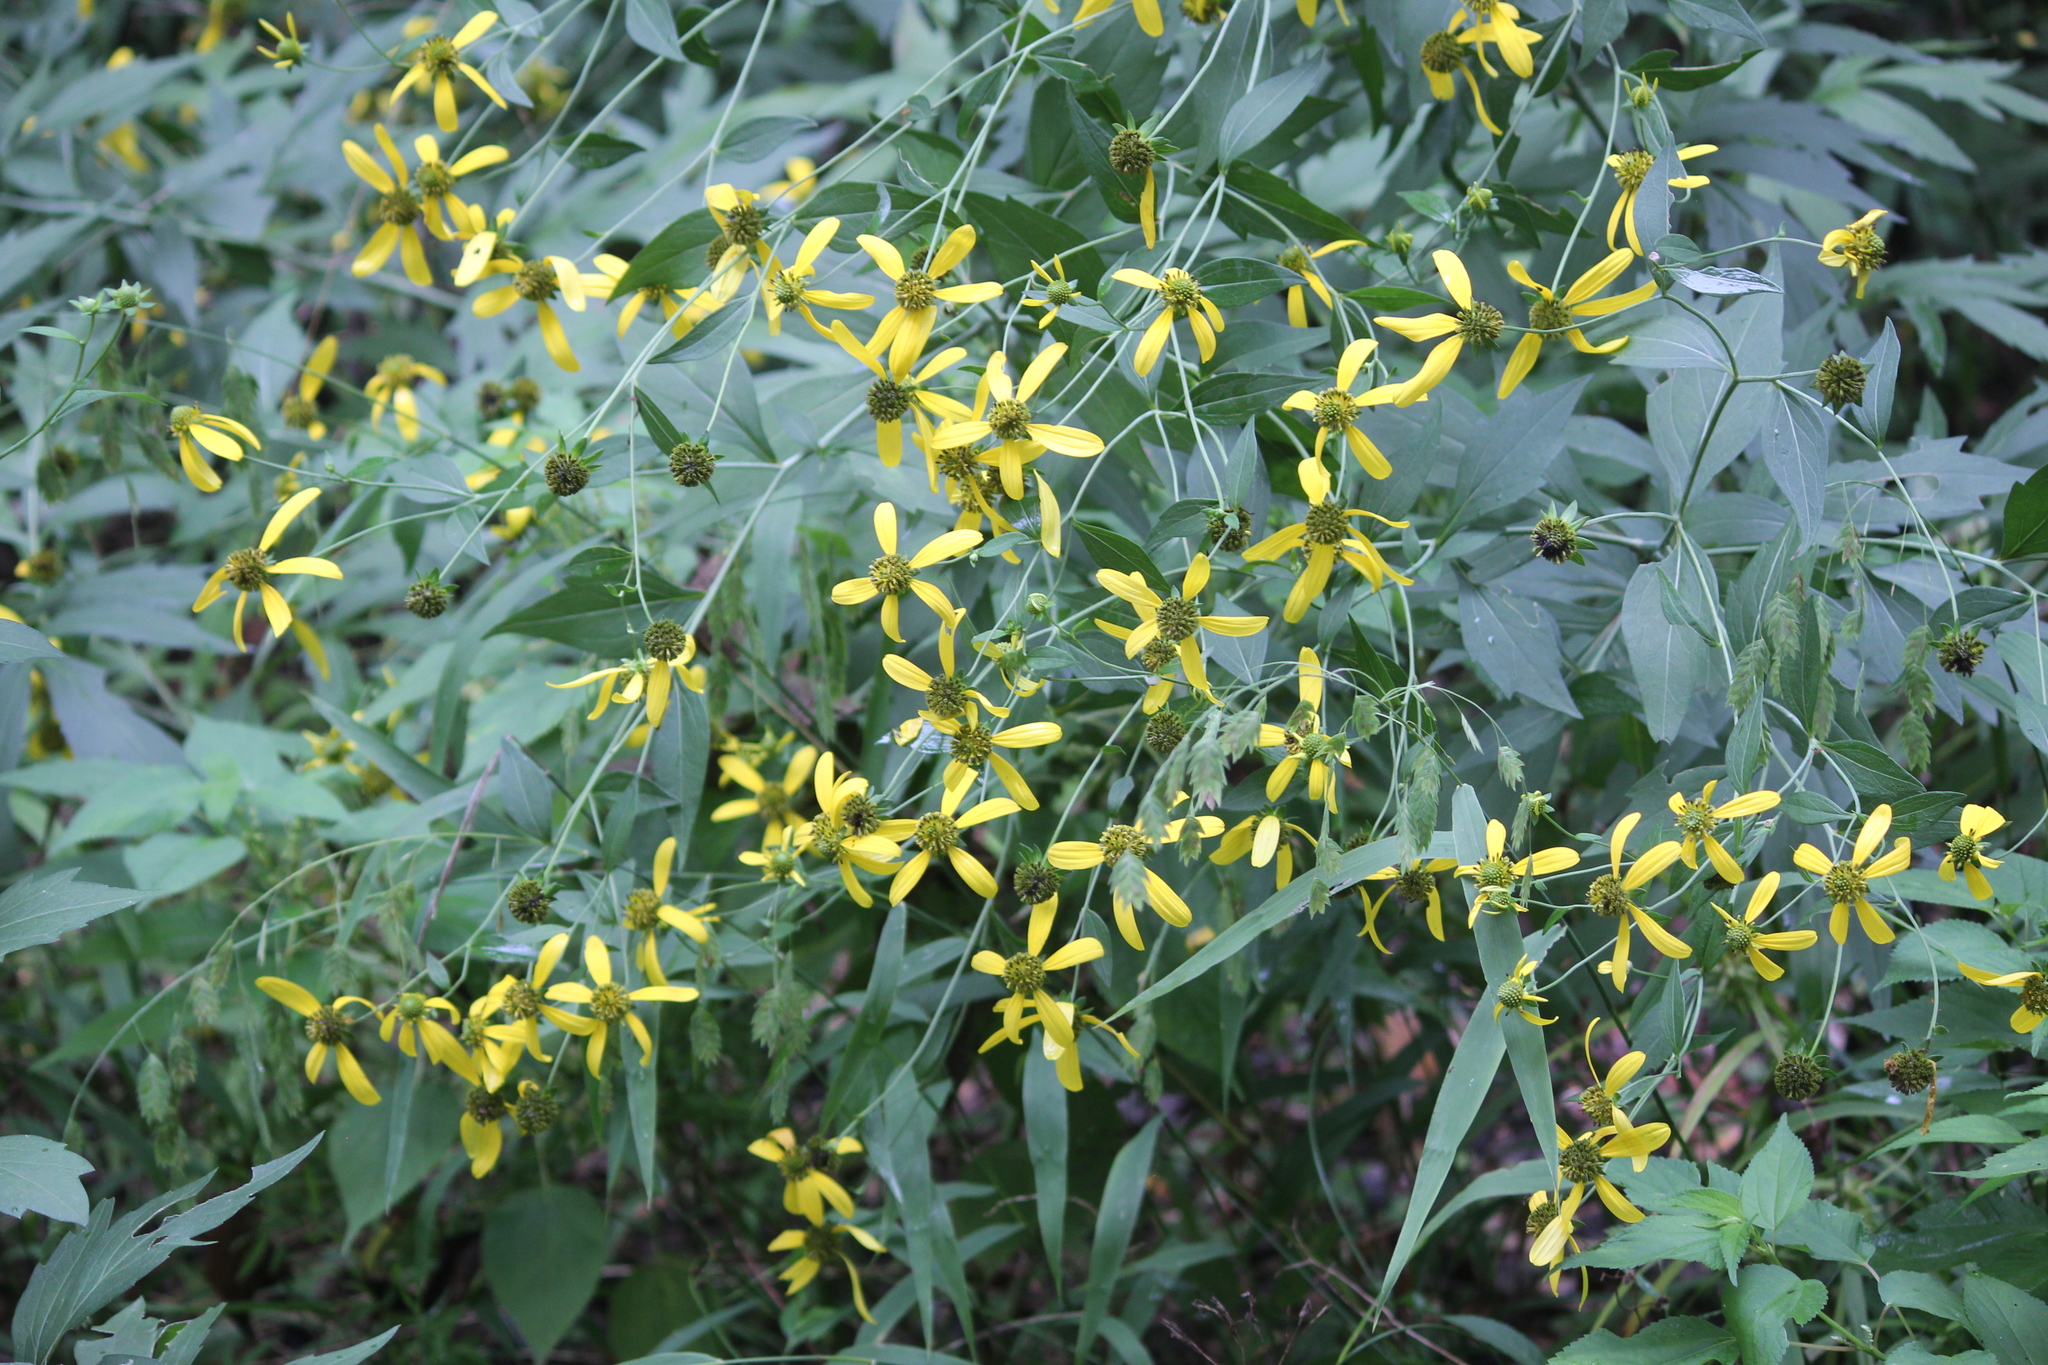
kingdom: Plantae
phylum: Tracheophyta
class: Magnoliopsida
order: Asterales
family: Asteraceae
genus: Rudbeckia
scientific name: Rudbeckia laciniata
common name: Coneflower
